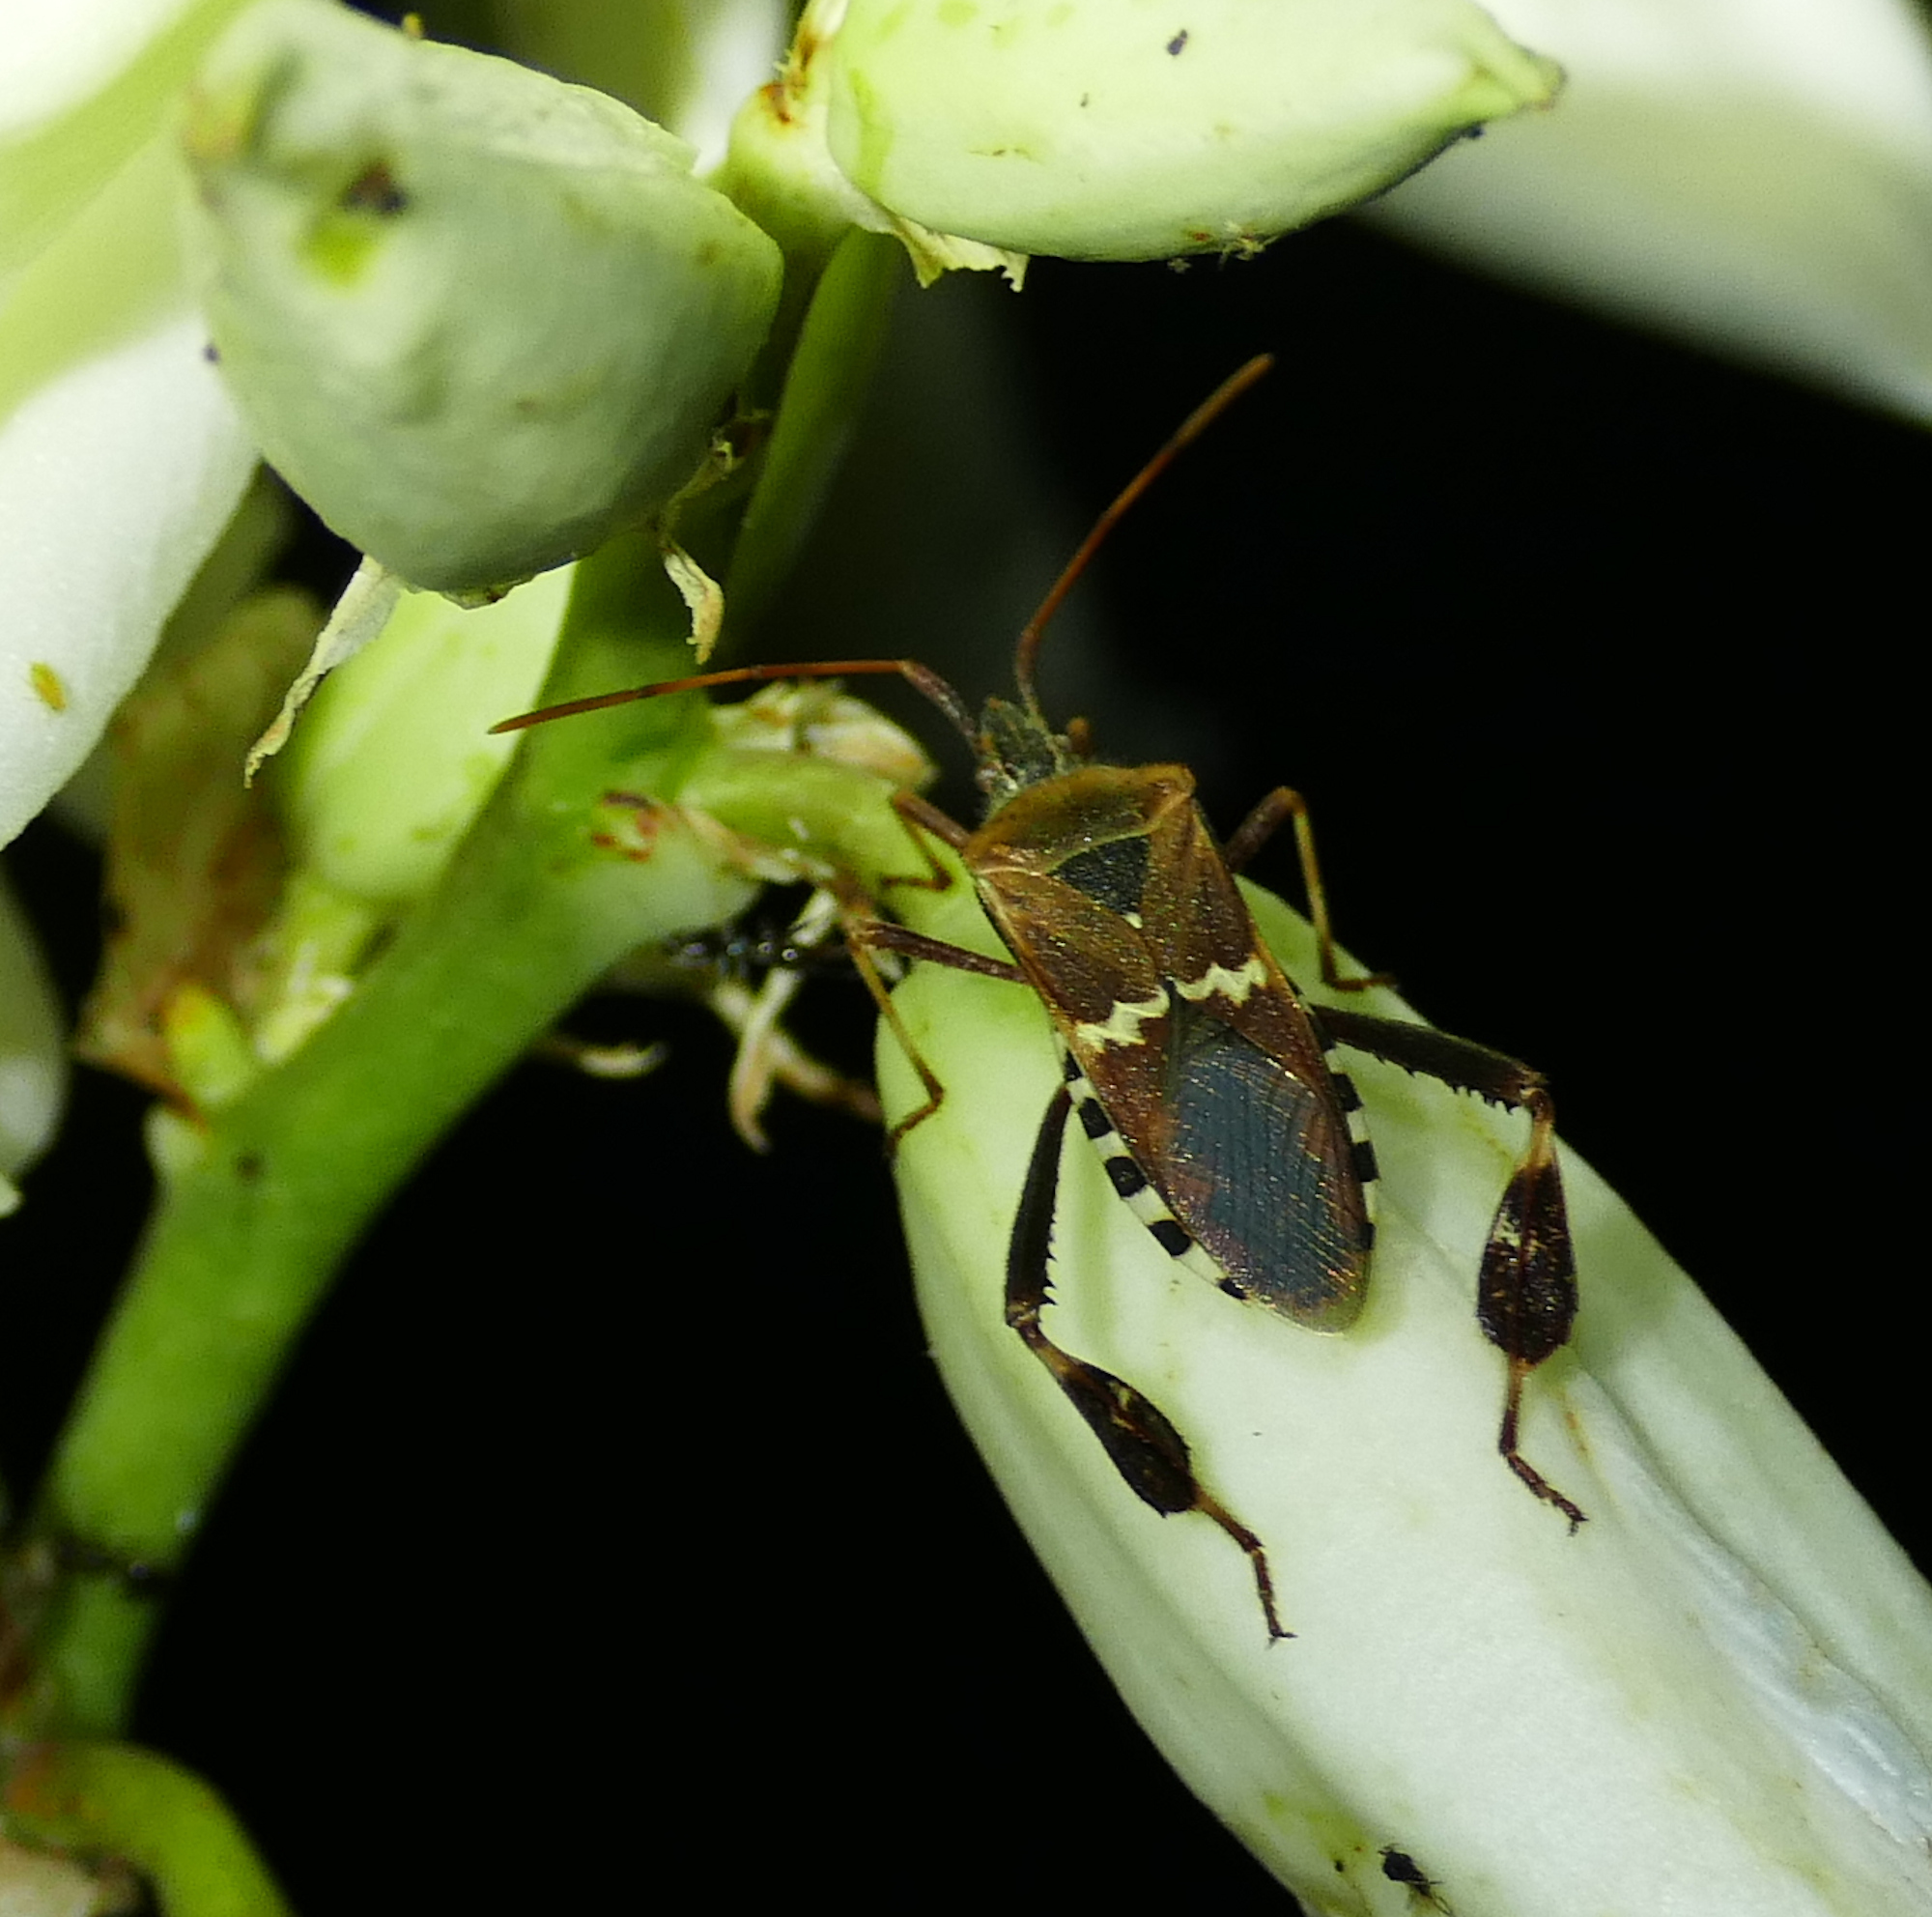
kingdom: Animalia
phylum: Arthropoda
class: Insecta
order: Hemiptera
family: Coreidae
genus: Leptoglossus
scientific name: Leptoglossus clypealis
